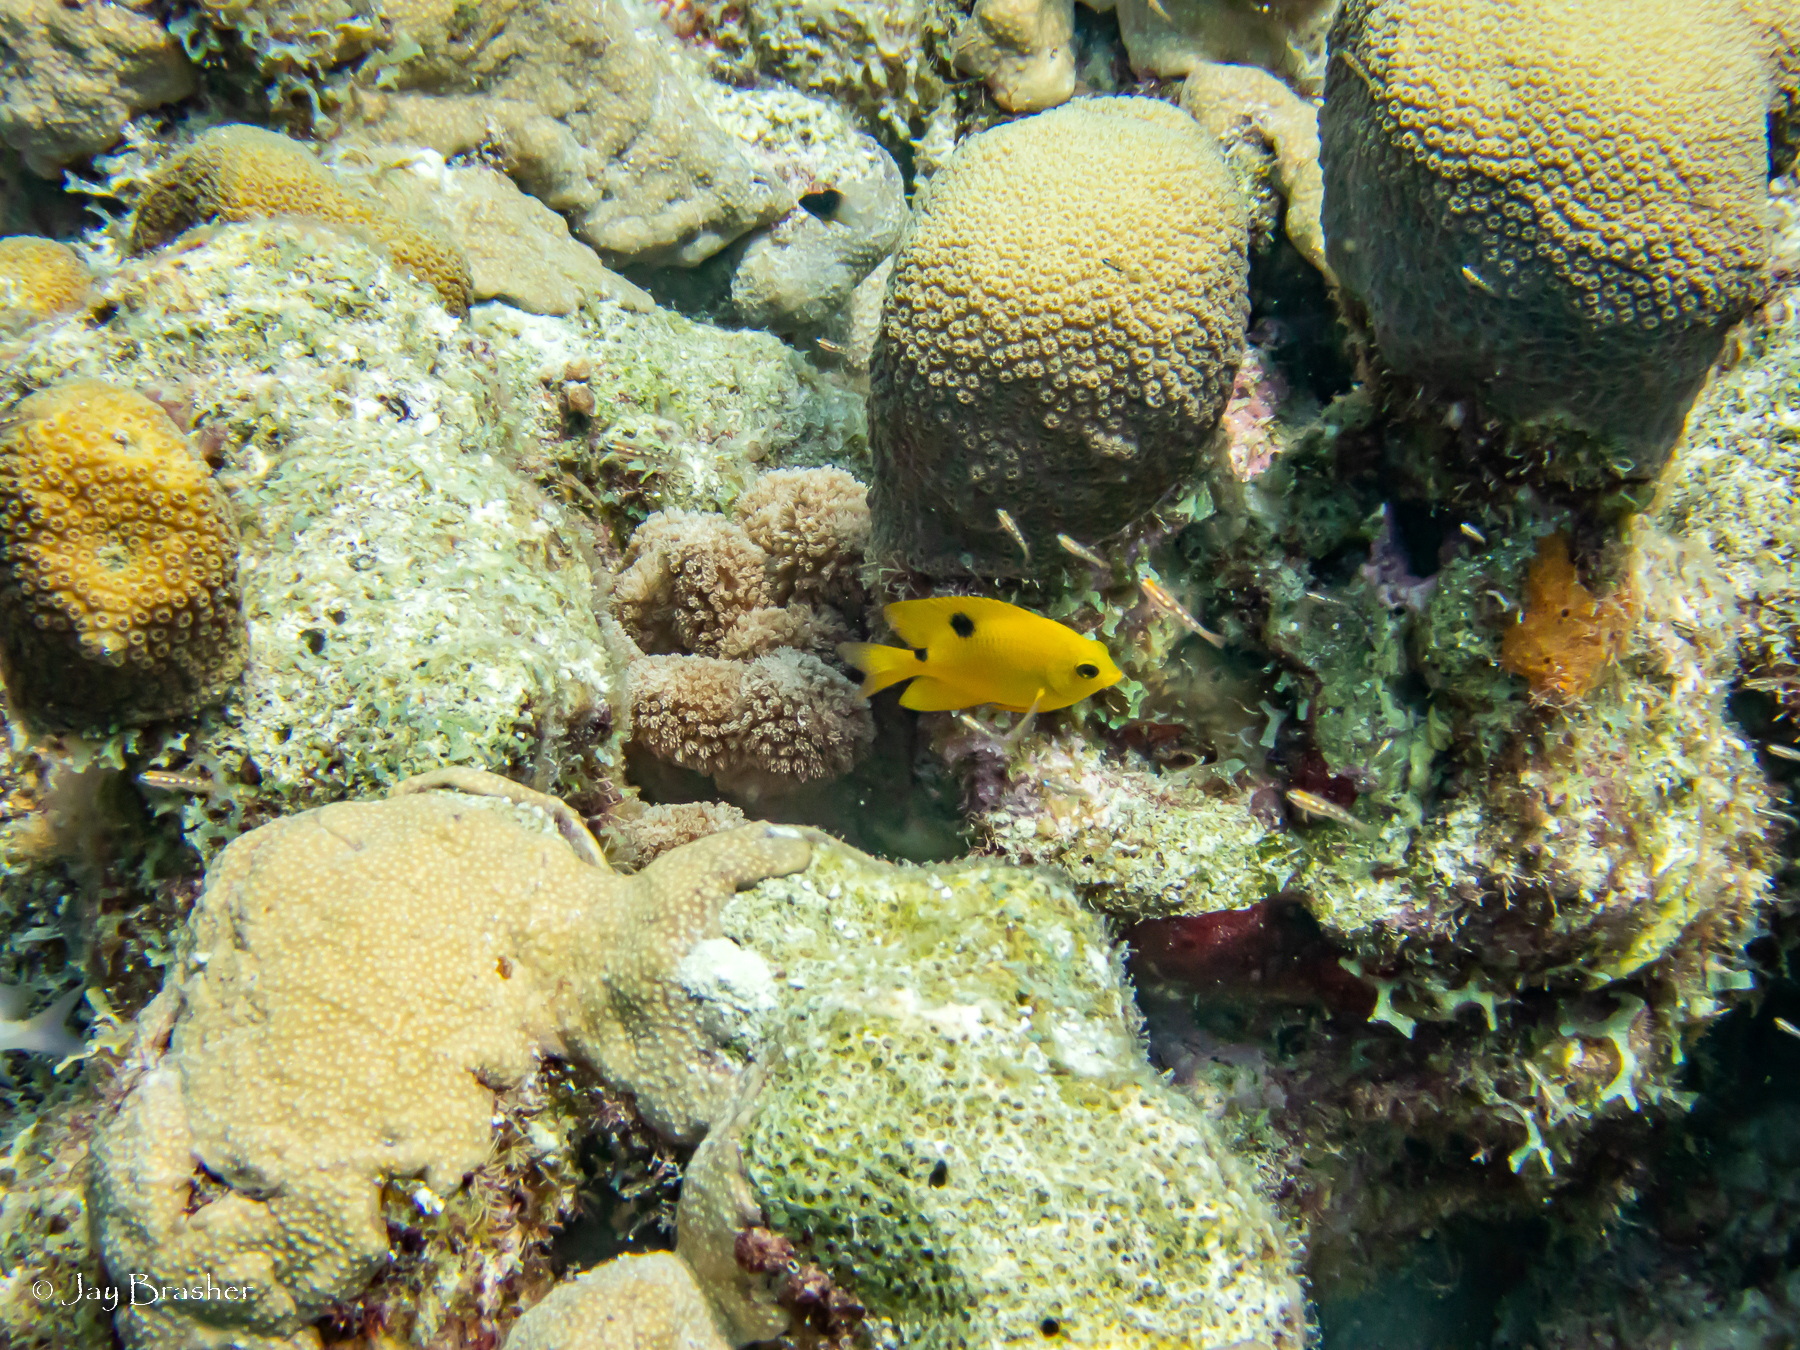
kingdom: Animalia
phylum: Chordata
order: Perciformes
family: Pomacentridae
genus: Stegastes
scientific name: Stegastes planifrons
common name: Threespot damselfish
